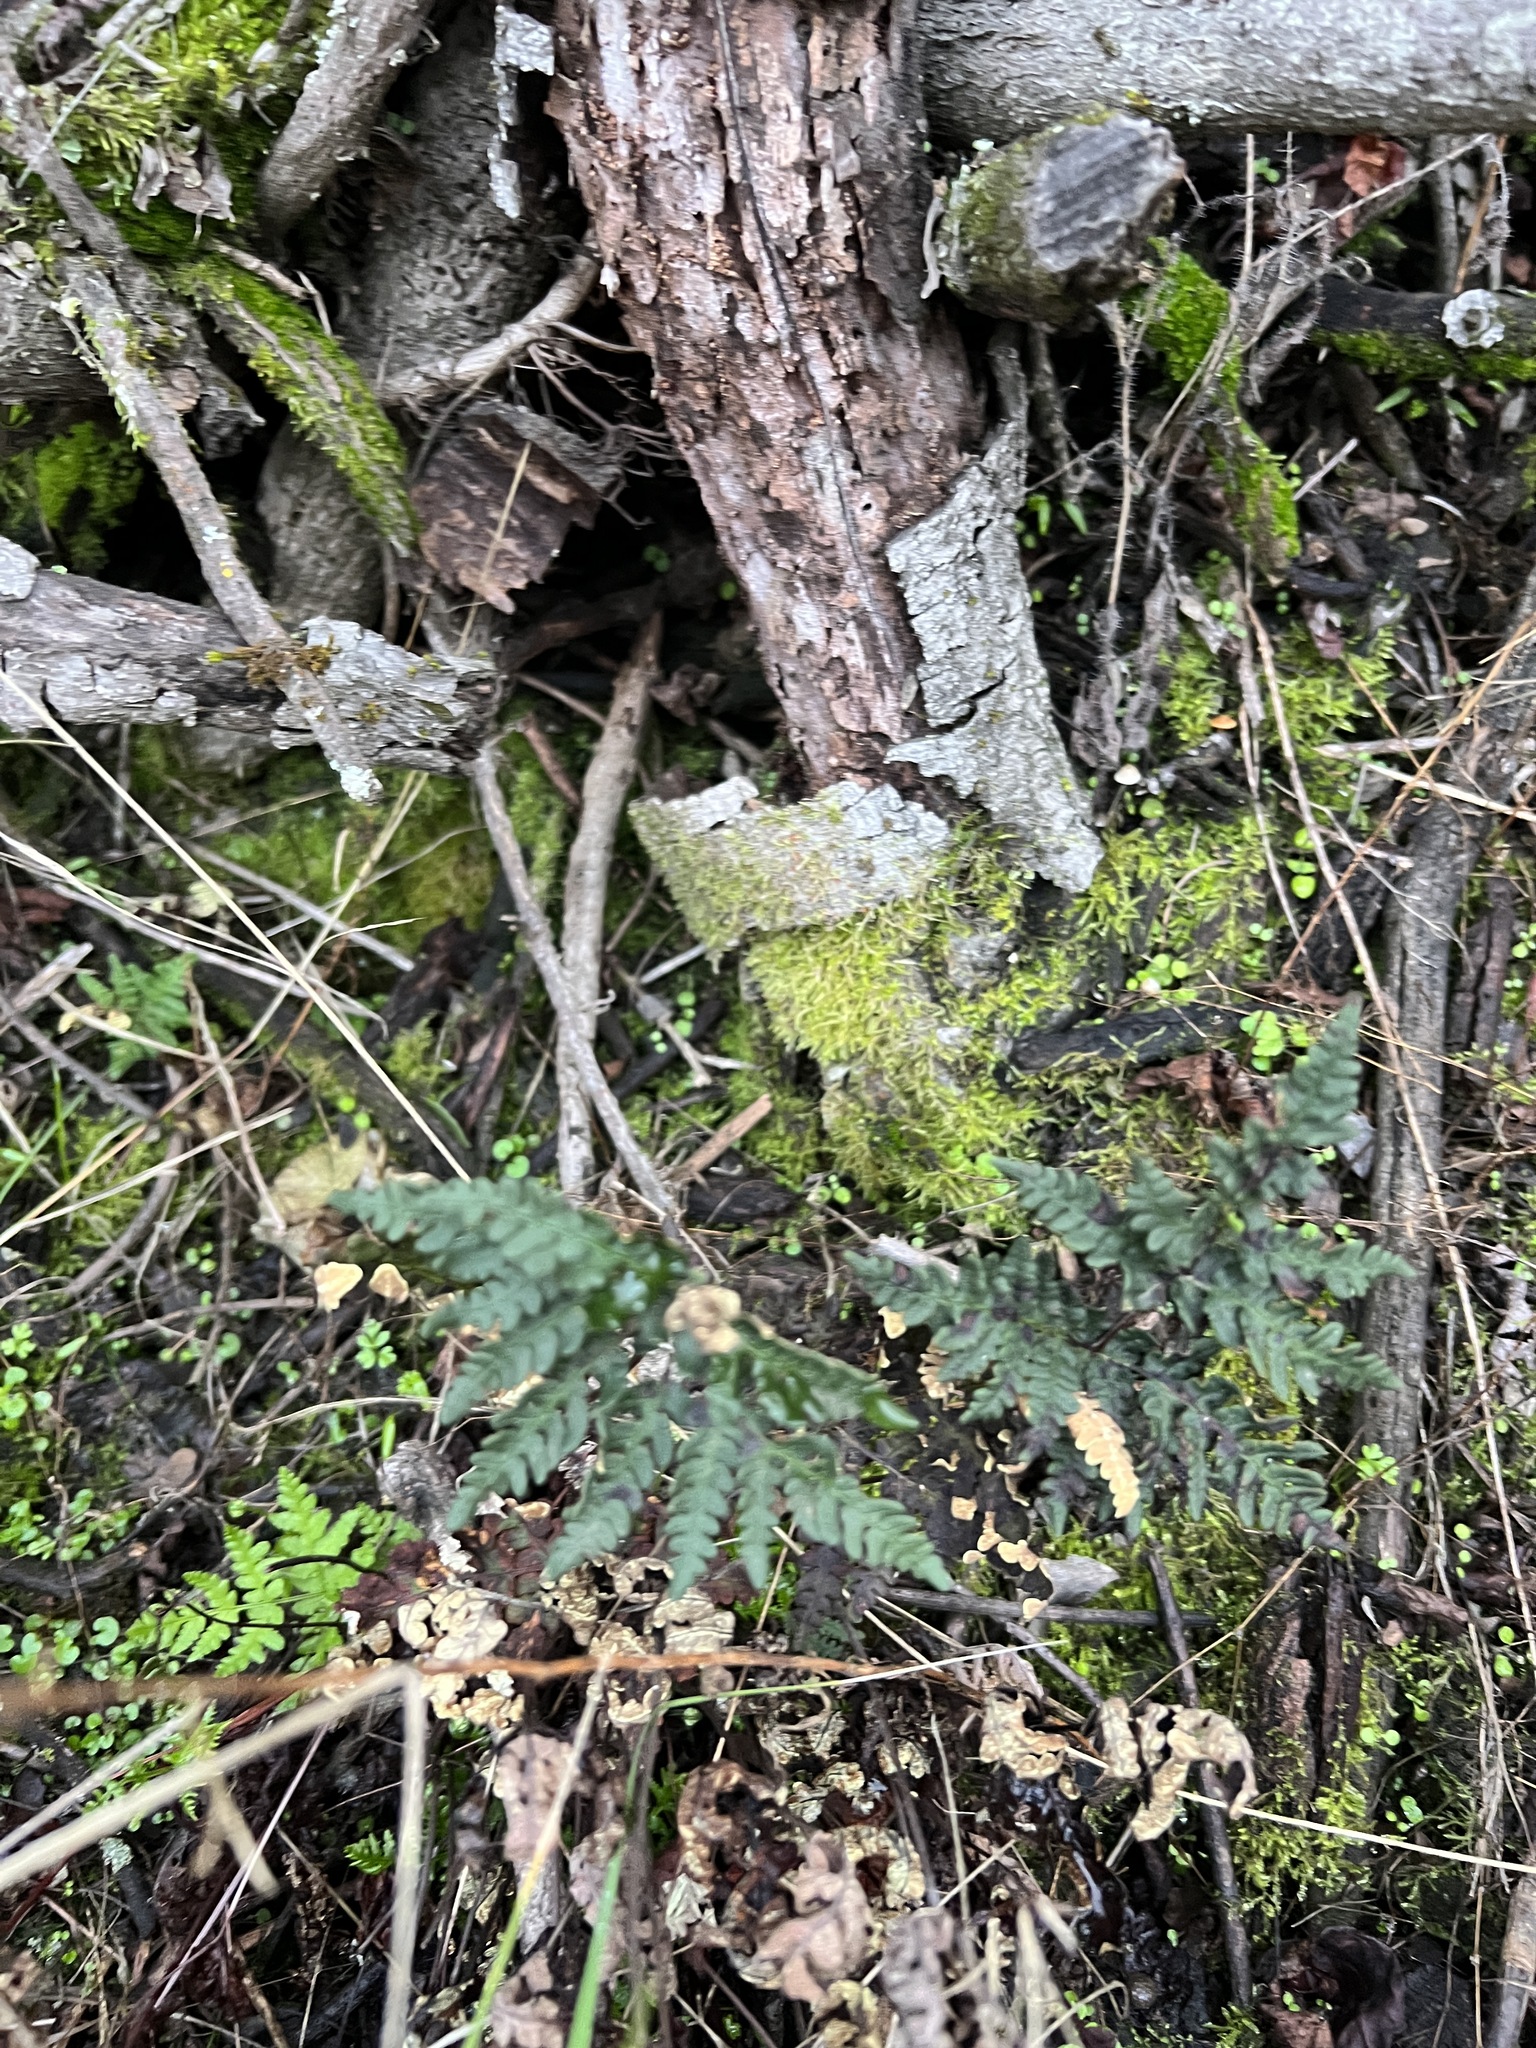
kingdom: Plantae
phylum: Tracheophyta
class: Polypodiopsida
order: Polypodiales
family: Pteridaceae
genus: Pentagramma
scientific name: Pentagramma triangularis
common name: Gold fern
